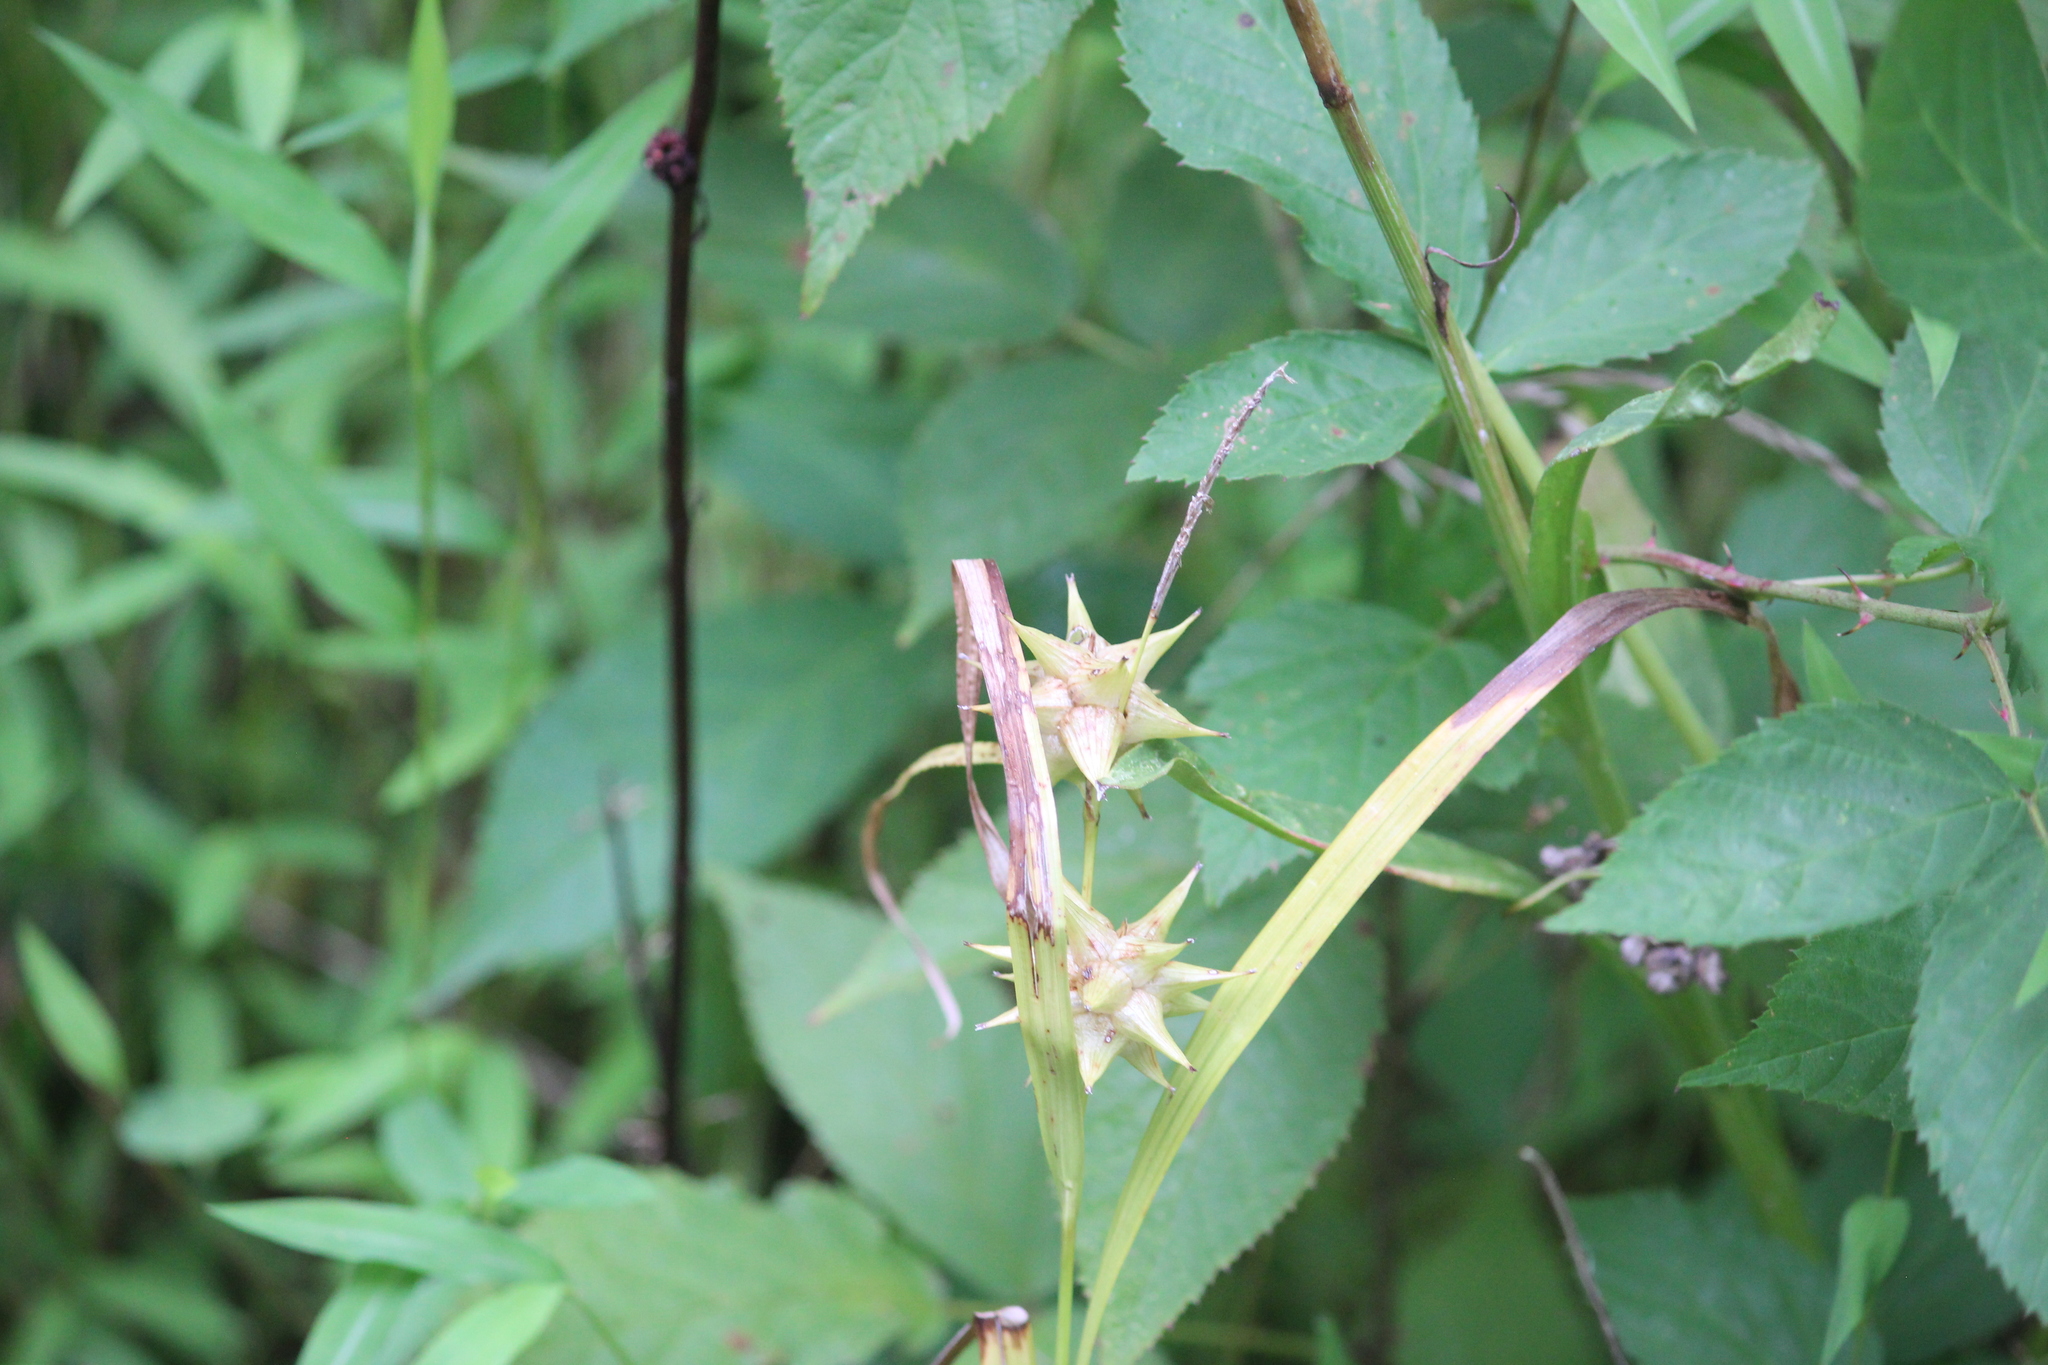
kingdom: Plantae
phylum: Tracheophyta
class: Liliopsida
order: Poales
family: Cyperaceae
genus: Carex
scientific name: Carex grayi
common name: Asa gray's sedge
